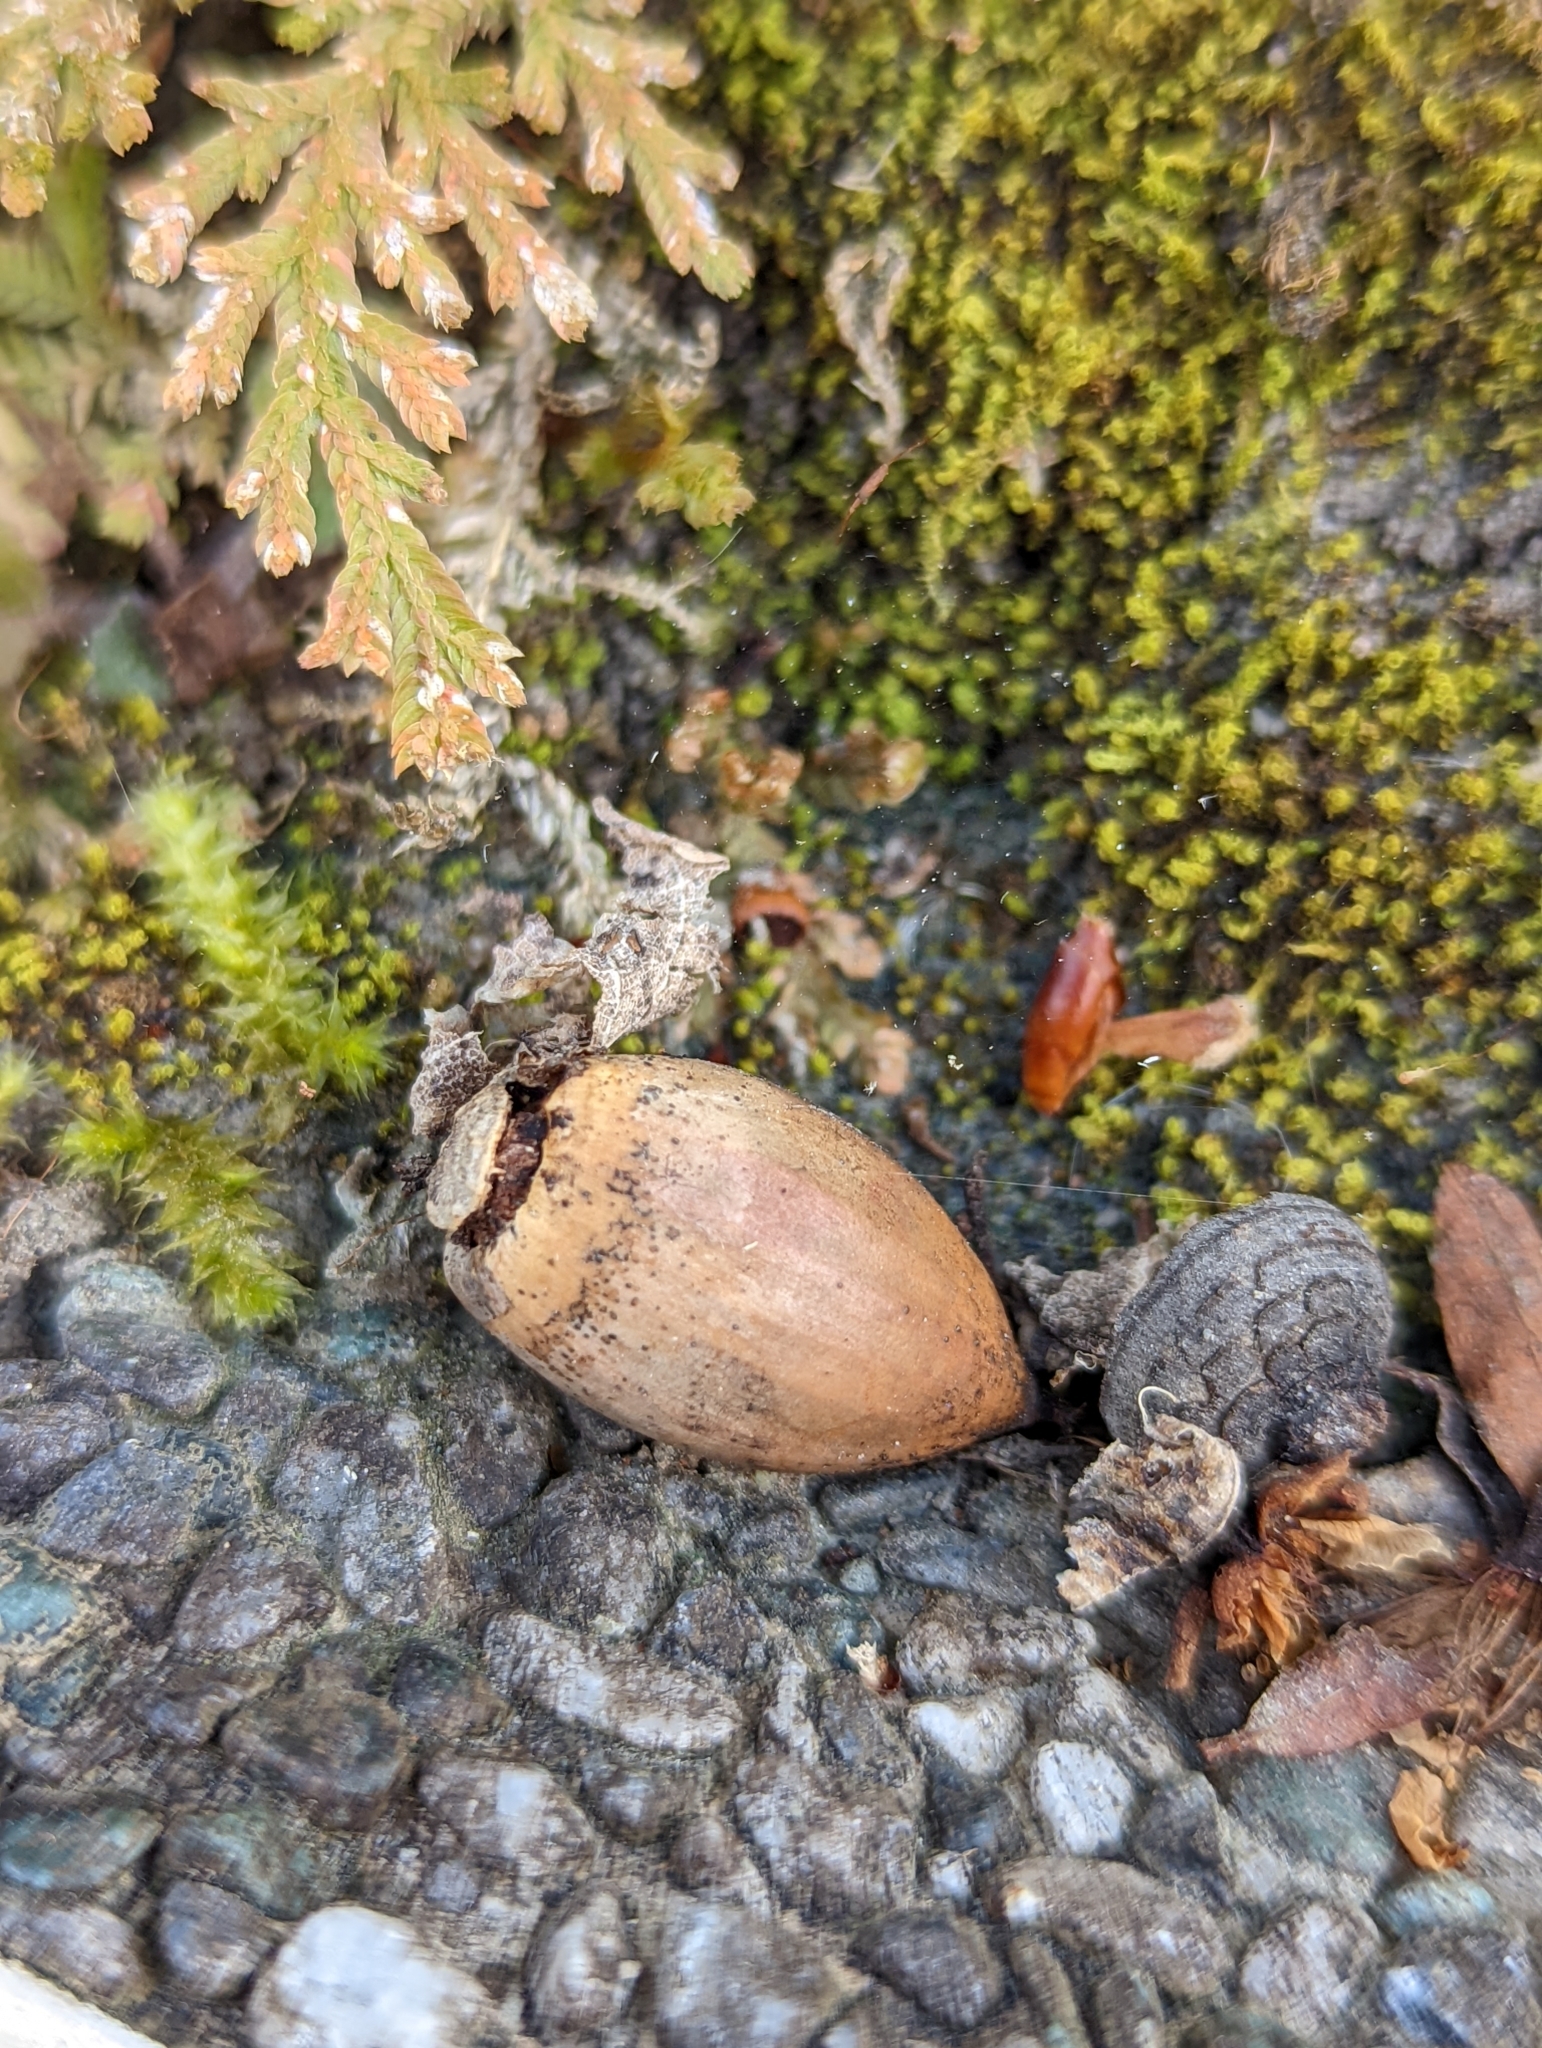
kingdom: Plantae
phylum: Tracheophyta
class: Magnoliopsida
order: Fagales
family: Fagaceae
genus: Quercus
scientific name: Quercus glauca
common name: Ring-cup oak
